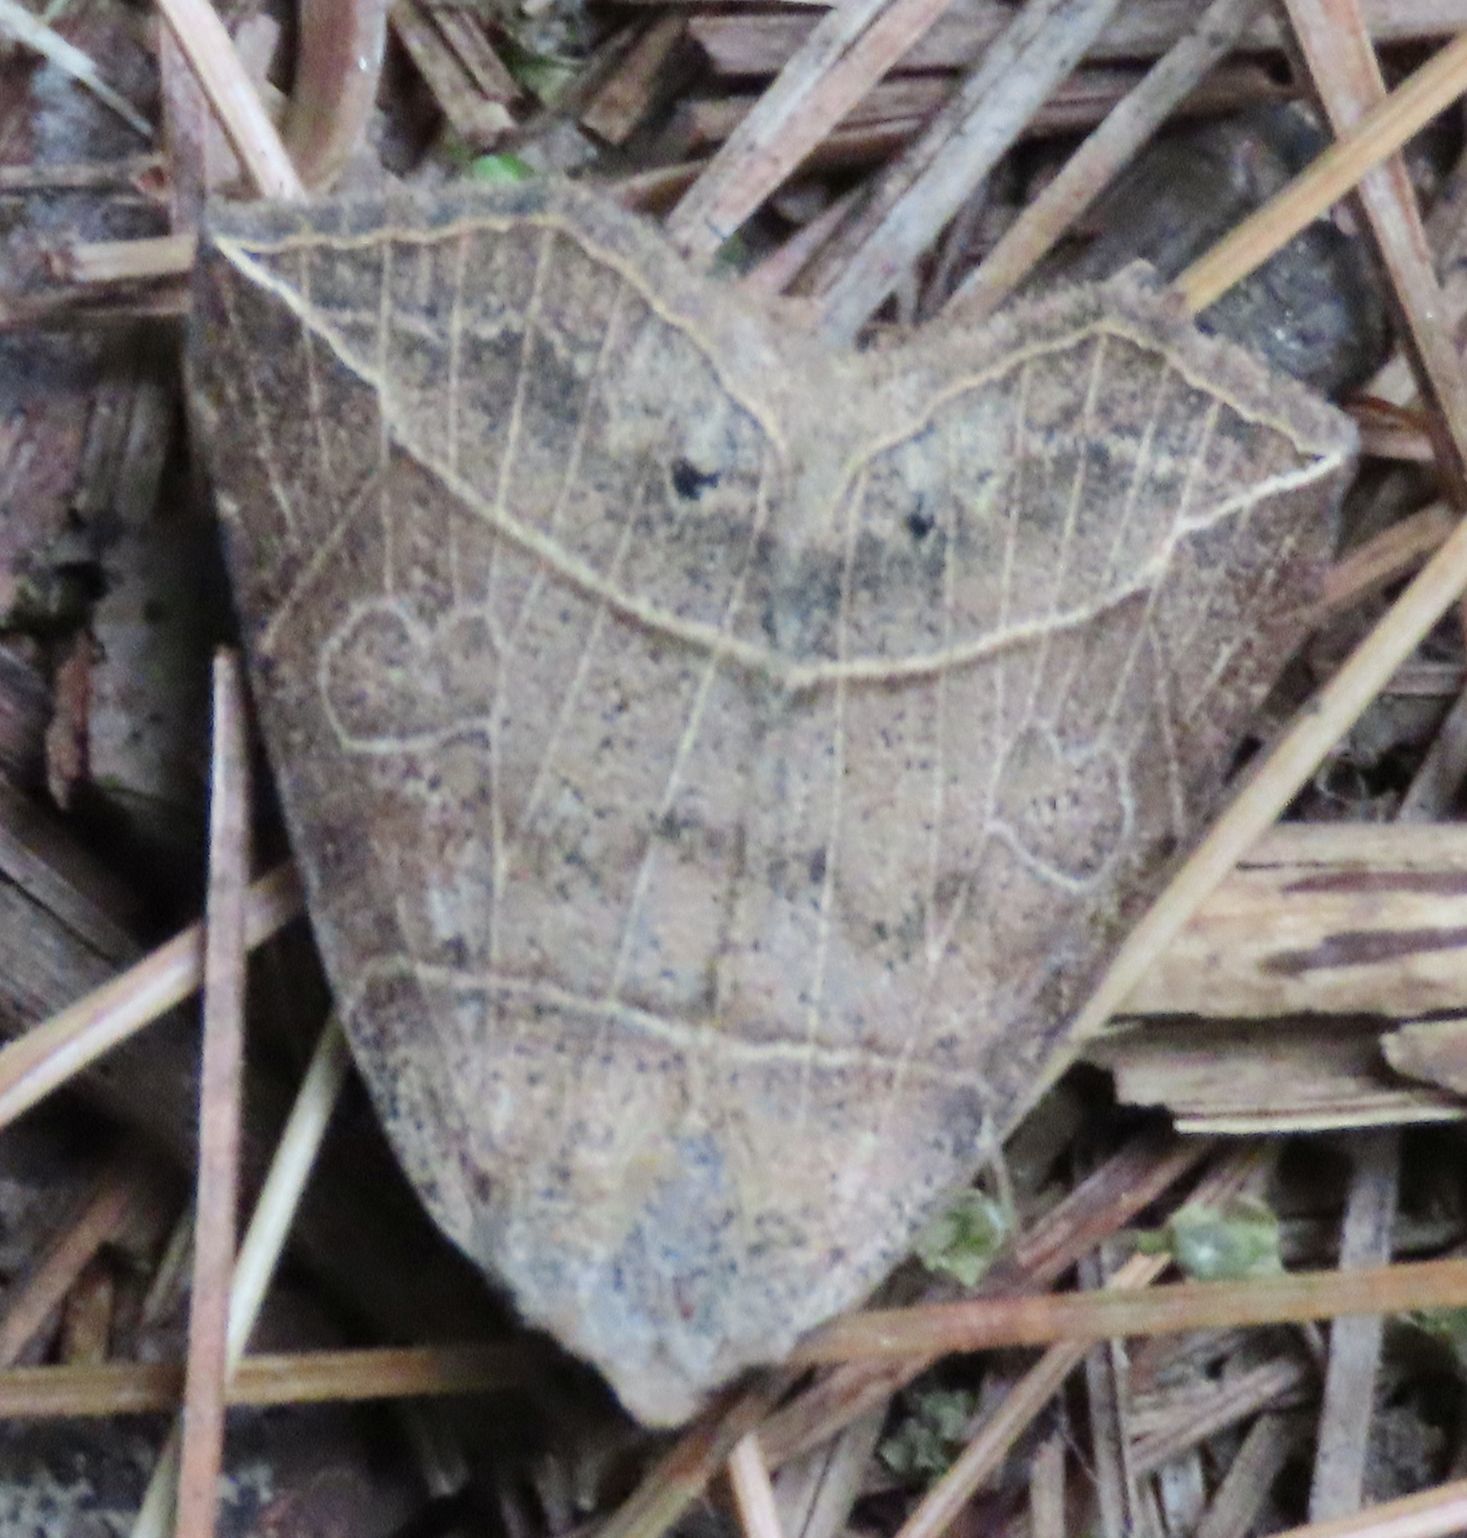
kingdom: Animalia
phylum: Arthropoda
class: Insecta
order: Lepidoptera
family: Erebidae
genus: Isogona
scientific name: Isogona tenuis
